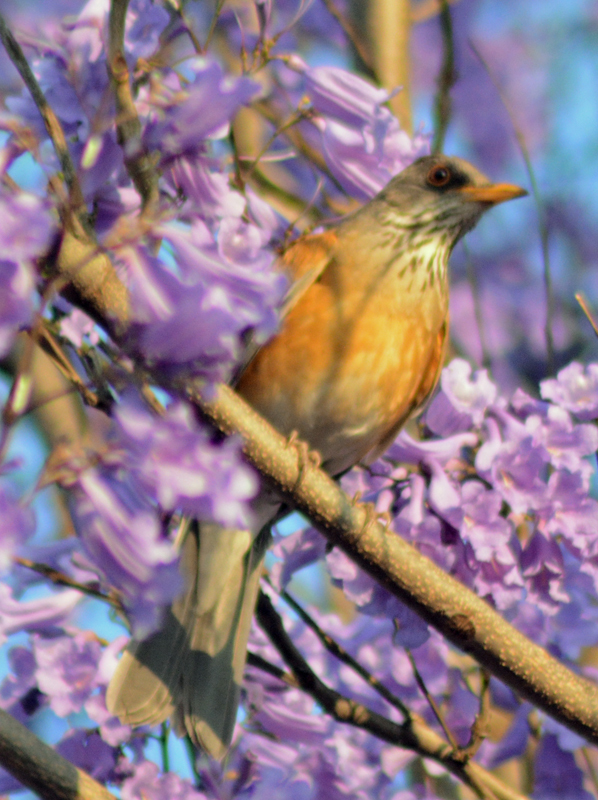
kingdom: Animalia
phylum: Chordata
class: Aves
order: Passeriformes
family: Turdidae
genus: Turdus
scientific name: Turdus rufopalliatus
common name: Rufous-backed robin
